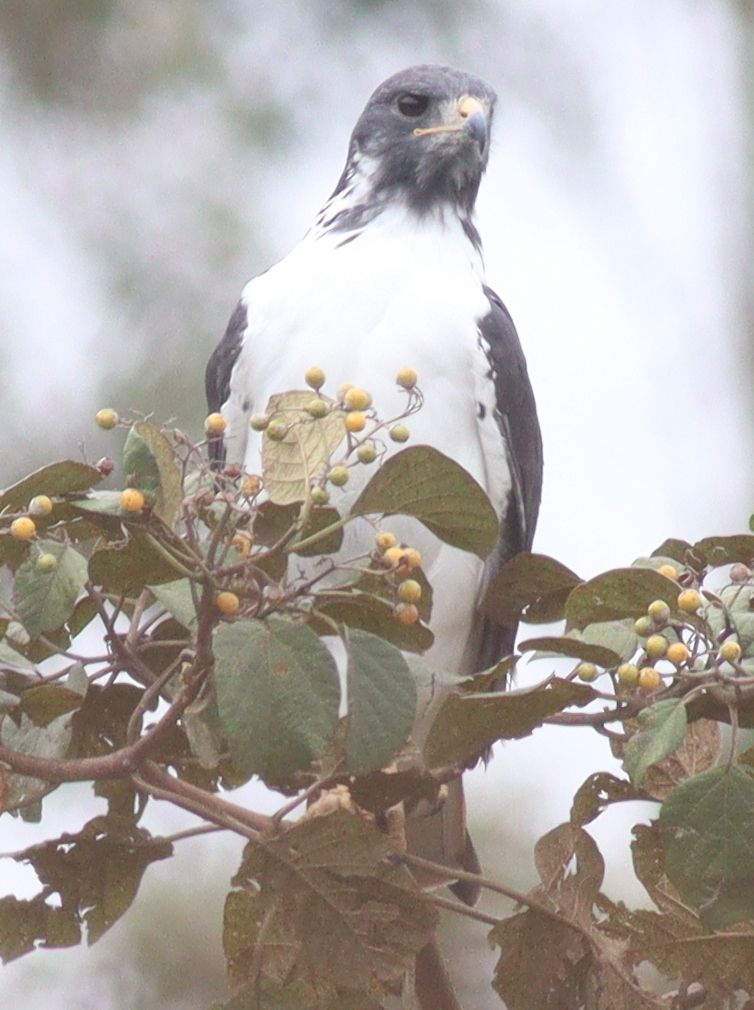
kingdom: Animalia
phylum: Chordata
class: Aves
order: Accipitriformes
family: Accipitridae
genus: Buteo
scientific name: Buteo augur
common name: Augur buzzard
